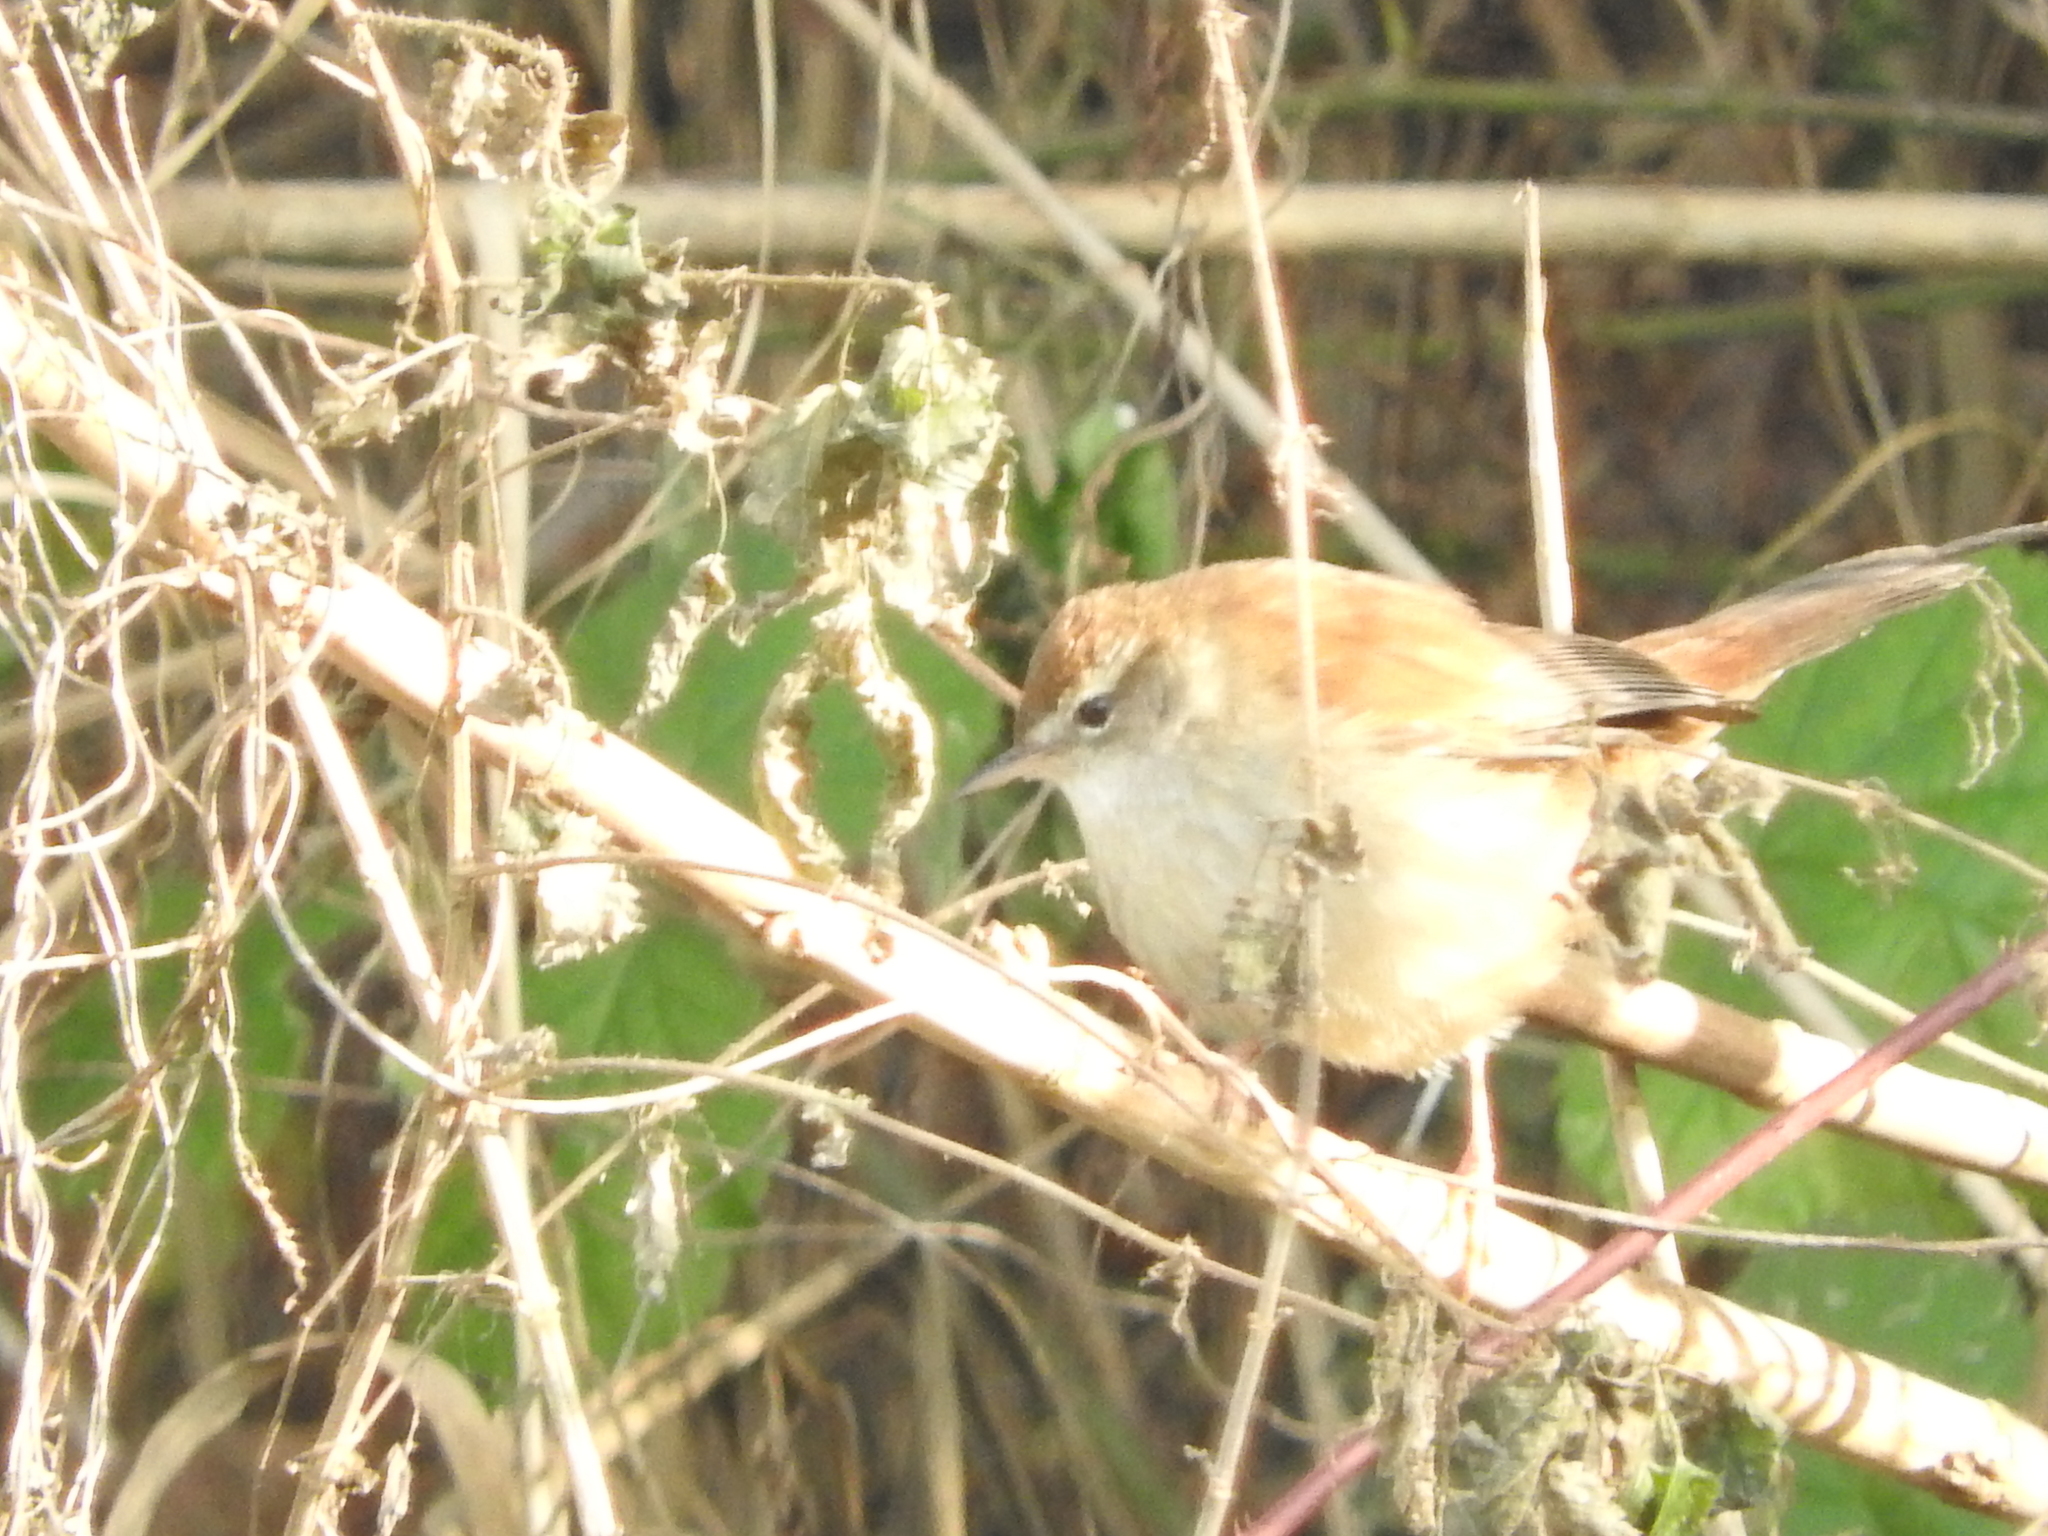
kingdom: Animalia
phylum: Chordata
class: Aves
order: Passeriformes
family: Cettiidae
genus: Cettia
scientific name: Cettia cetti
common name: Cetti's warbler
